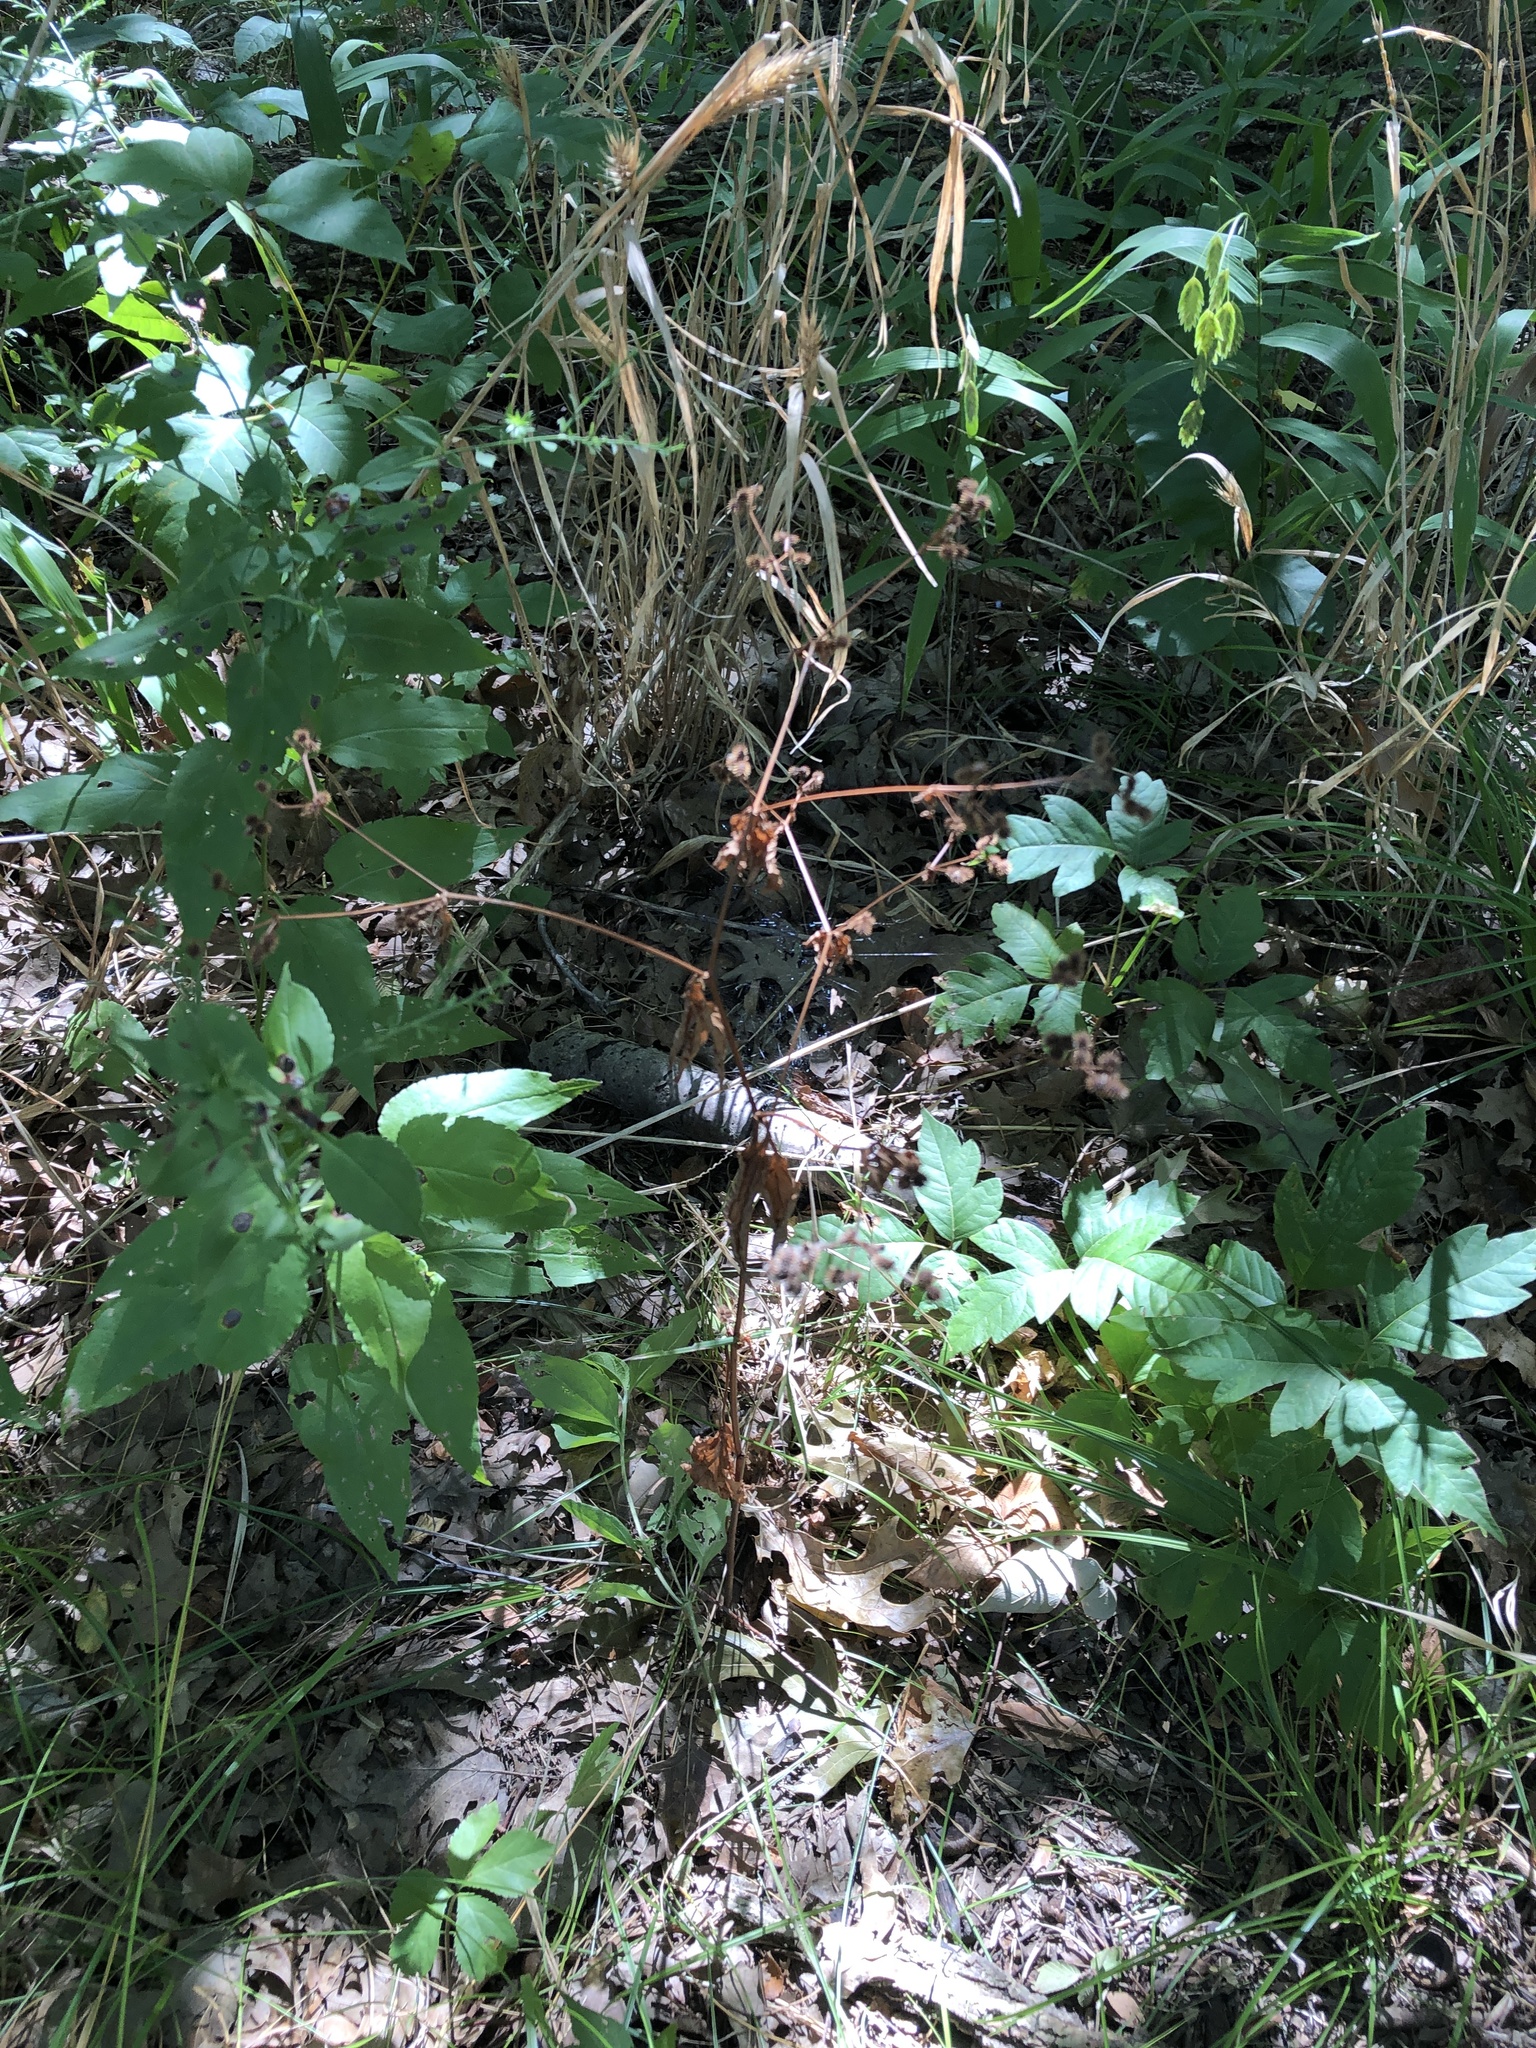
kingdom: Plantae
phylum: Tracheophyta
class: Magnoliopsida
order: Apiales
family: Apiaceae
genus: Sanicula
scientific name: Sanicula canadensis
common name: Canada sanicle
